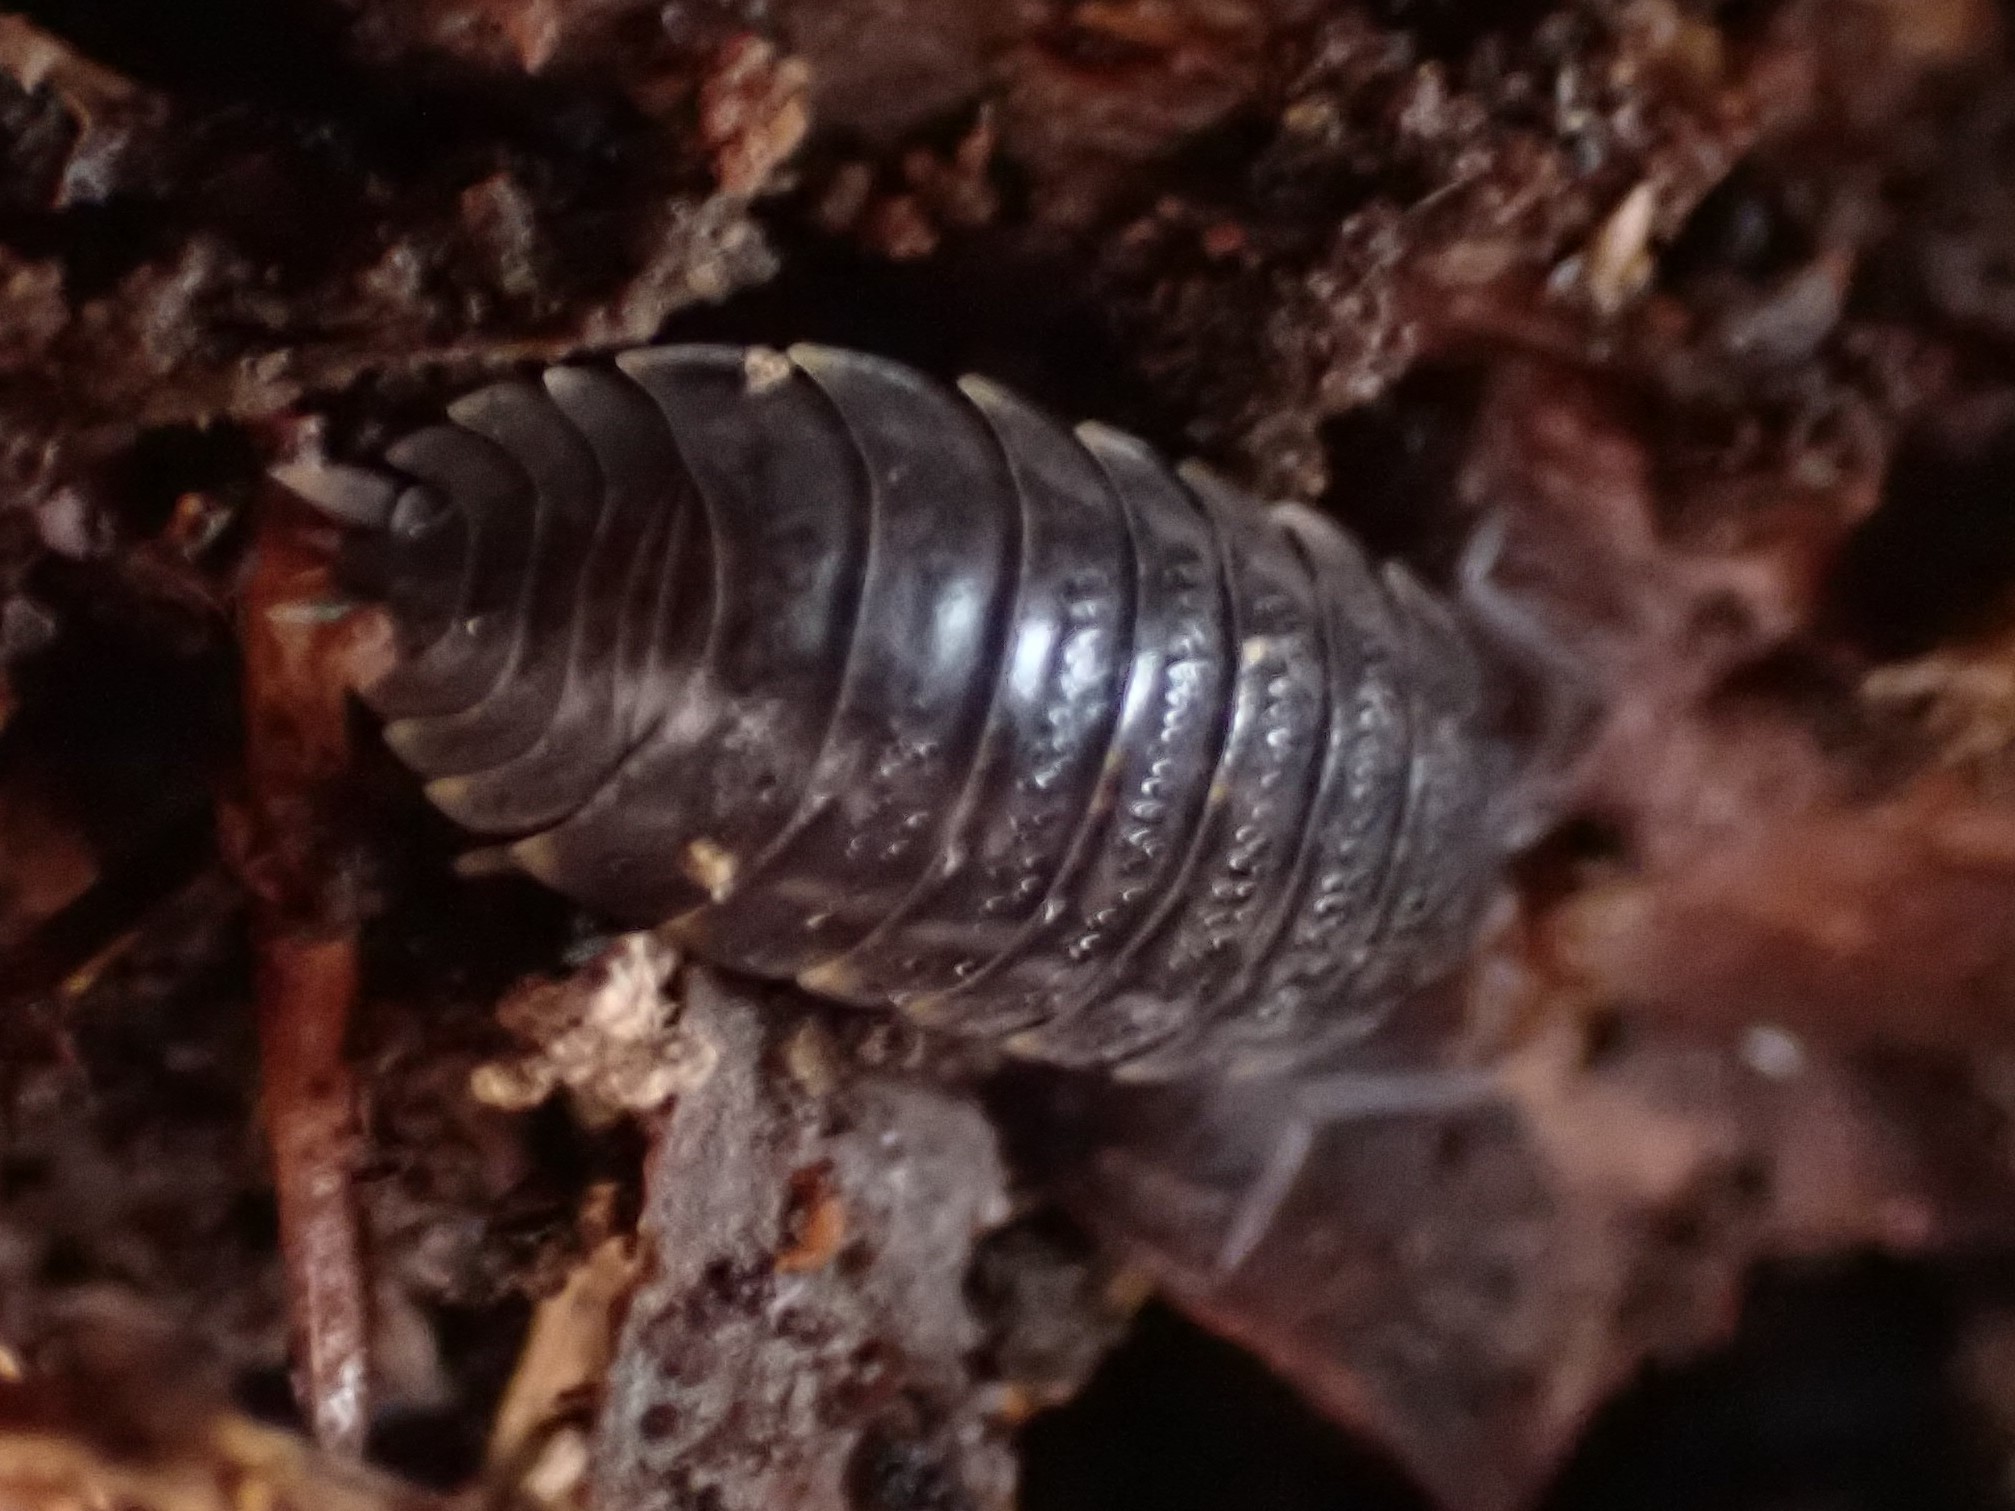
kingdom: Animalia
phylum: Arthropoda
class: Malacostraca
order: Isopoda
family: Trachelipodidae
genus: Trachelipus
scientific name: Trachelipus rathkii
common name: Isopod
